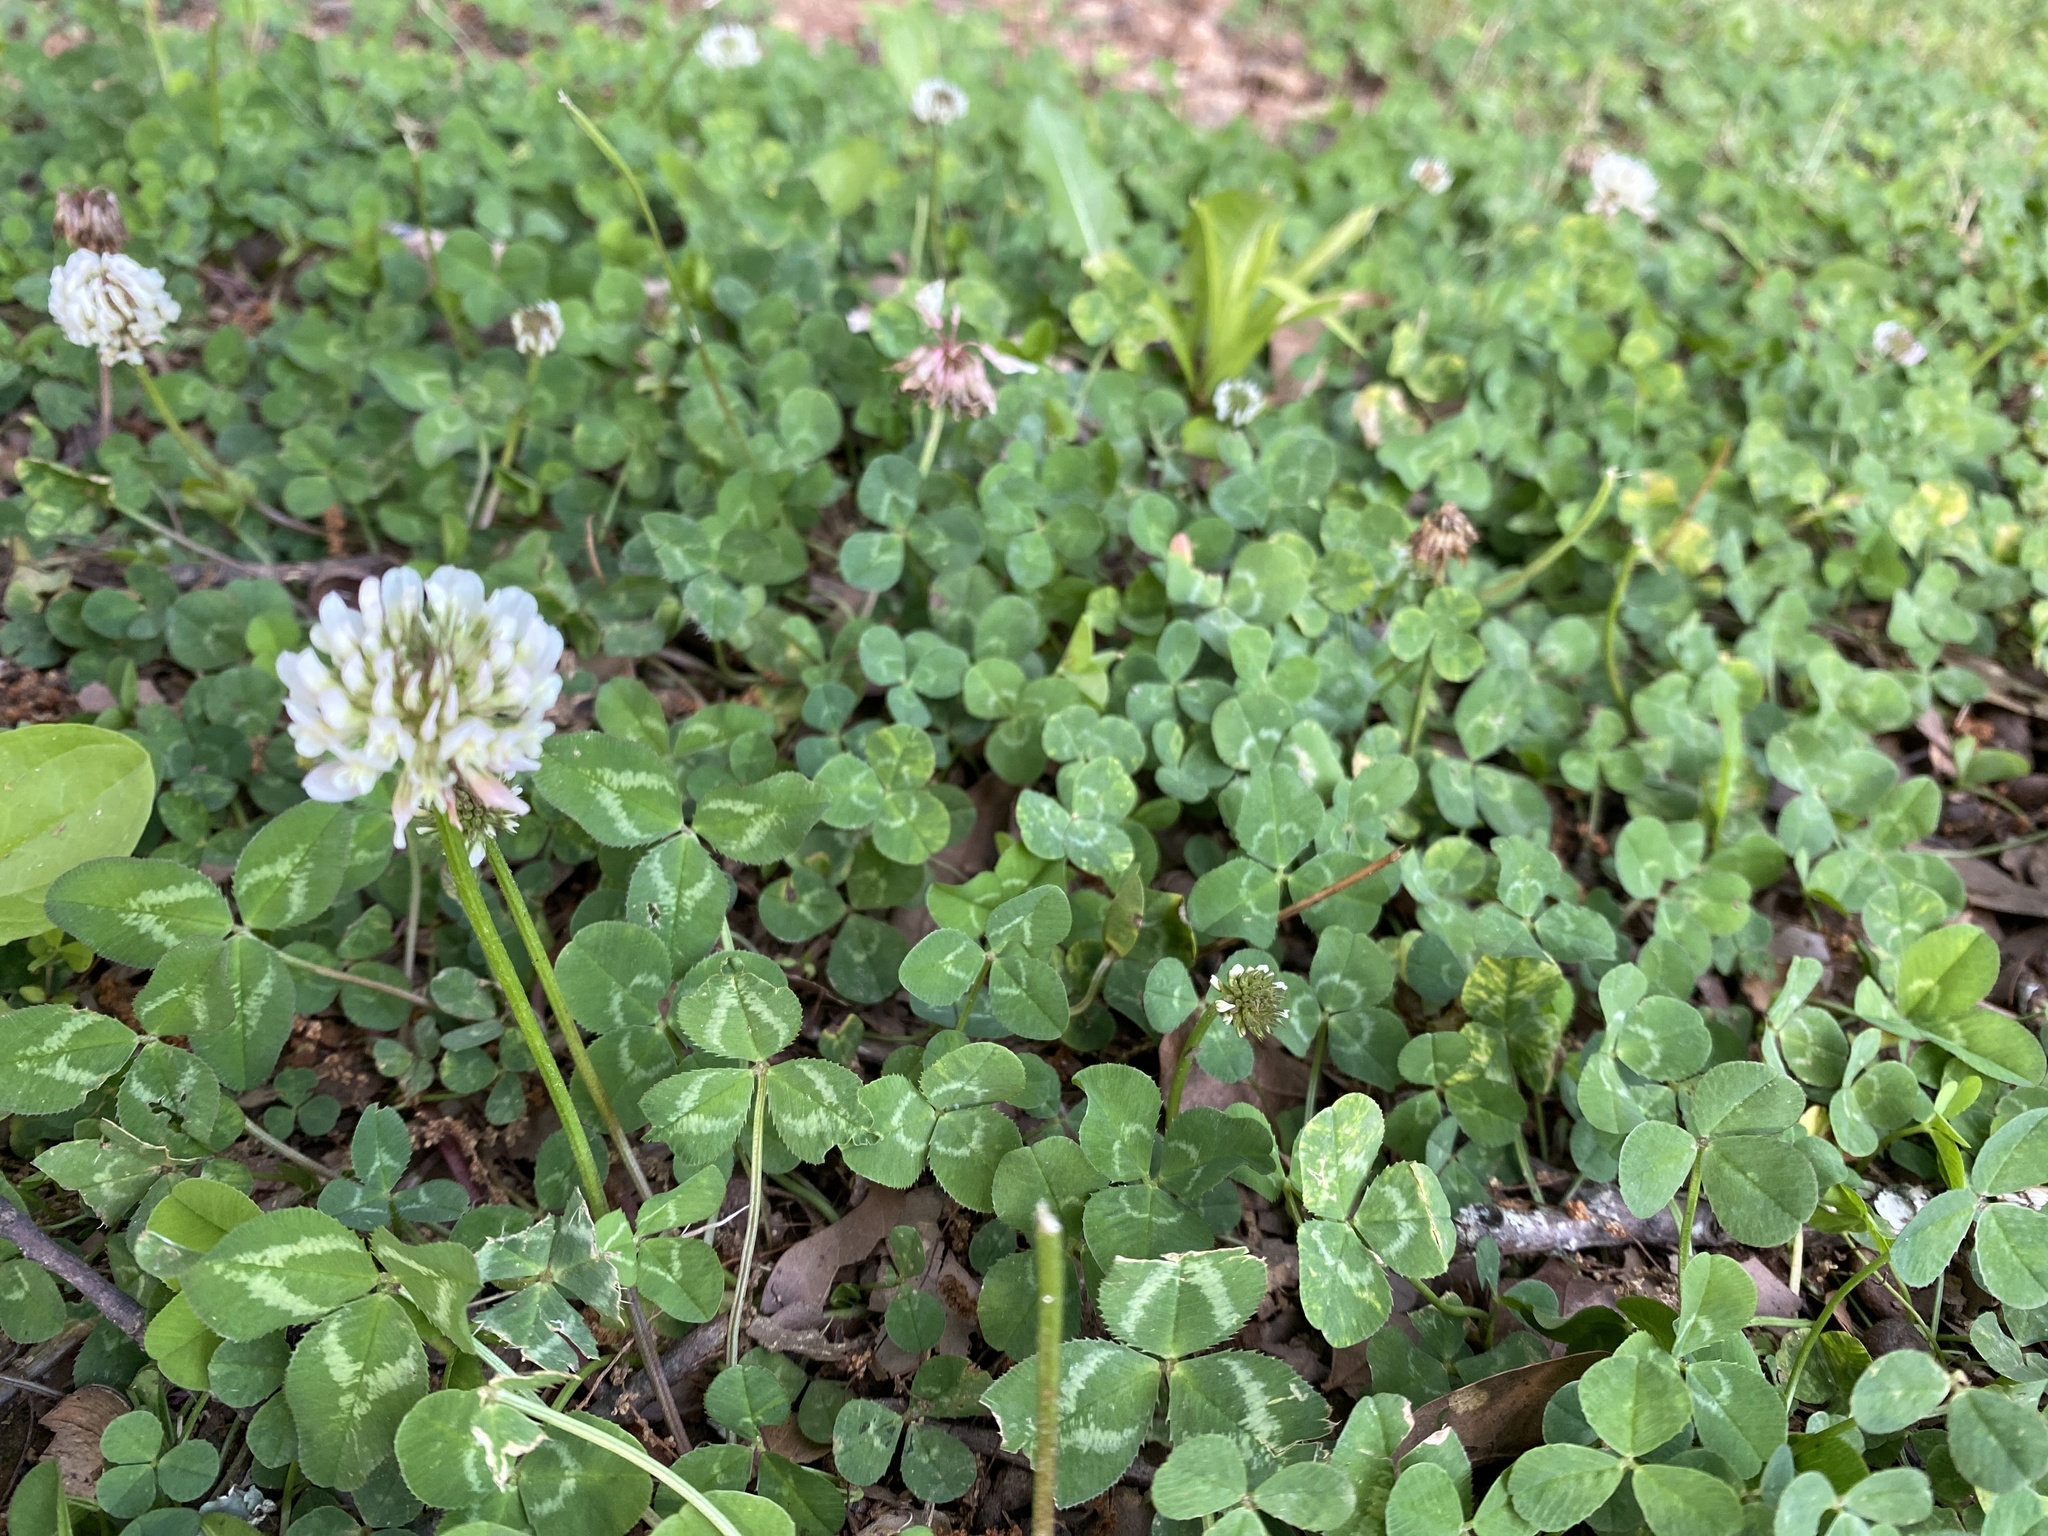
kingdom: Plantae
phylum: Tracheophyta
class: Magnoliopsida
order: Fabales
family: Fabaceae
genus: Trifolium
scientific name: Trifolium repens
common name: White clover
